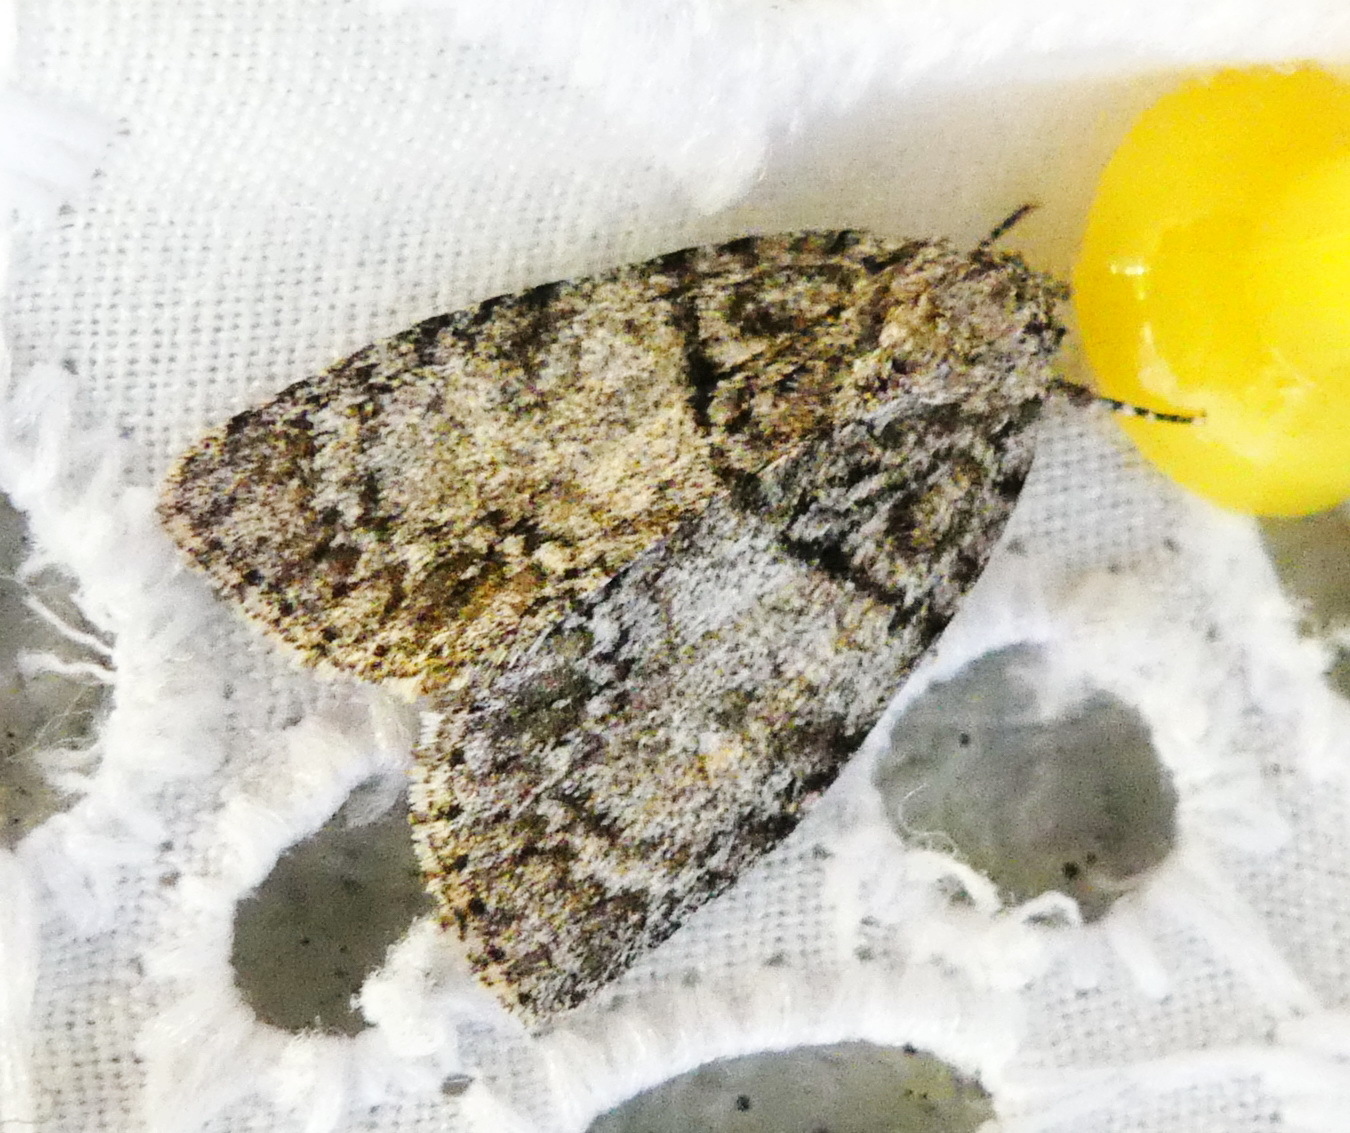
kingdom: Animalia
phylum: Arthropoda
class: Insecta
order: Lepidoptera
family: Noctuidae
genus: Acronicta
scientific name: Acronicta retardata
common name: Maple dagger
